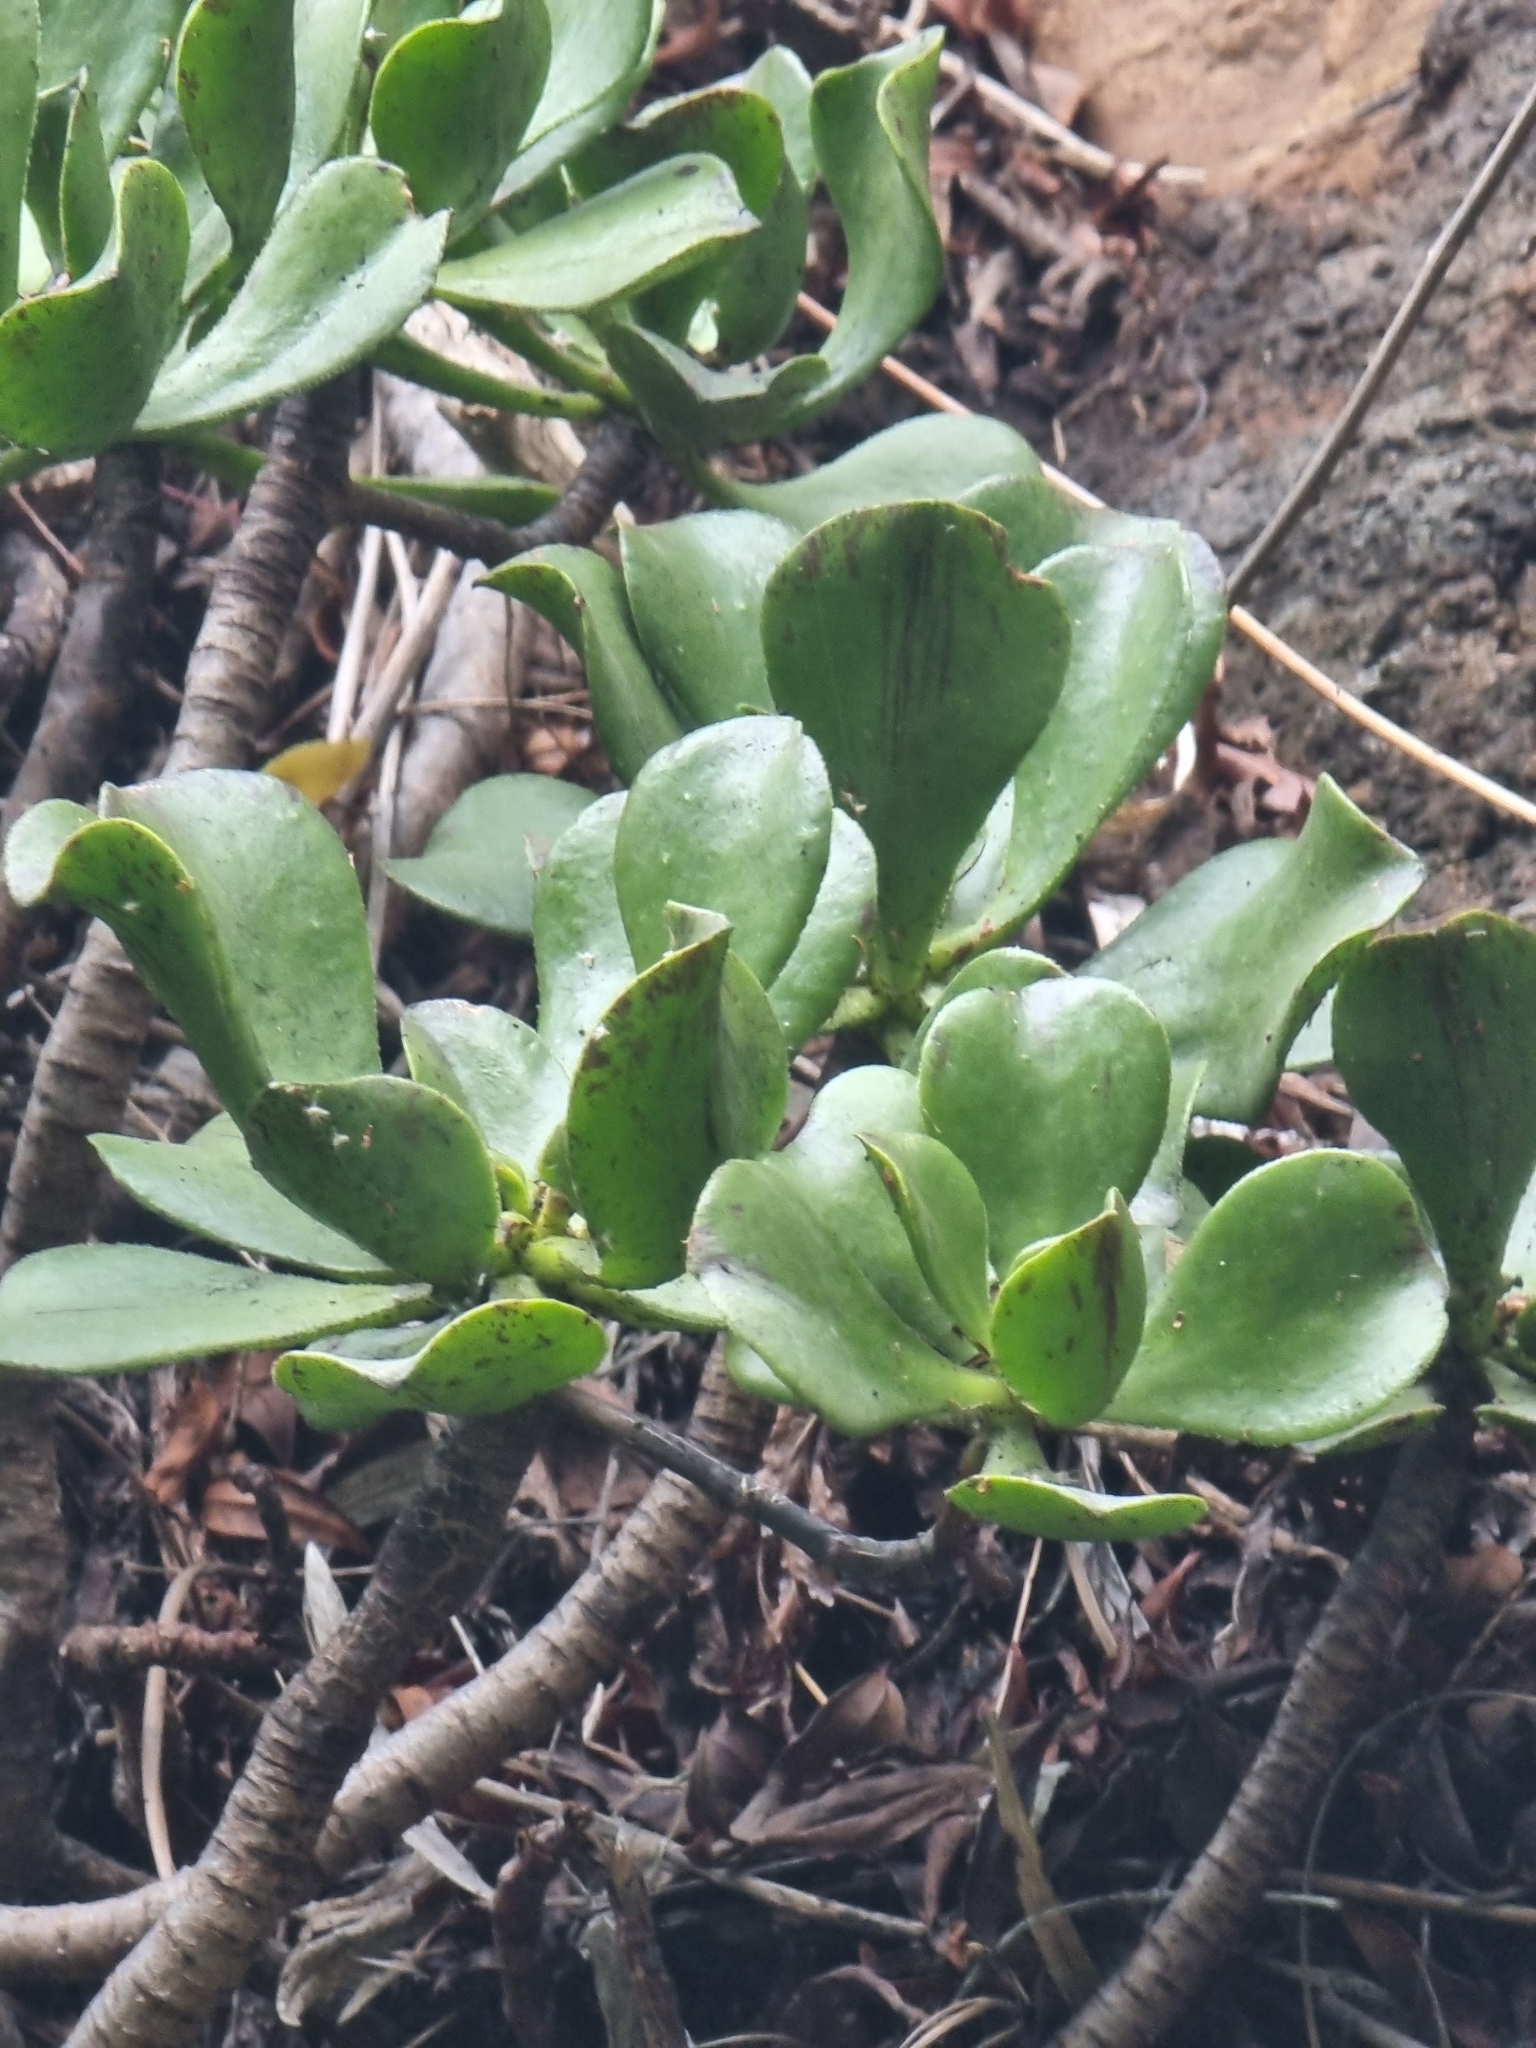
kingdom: Plantae
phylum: Tracheophyta
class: Magnoliopsida
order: Saxifragales
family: Crassulaceae
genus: Aeonium
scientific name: Aeonium glutinosum
